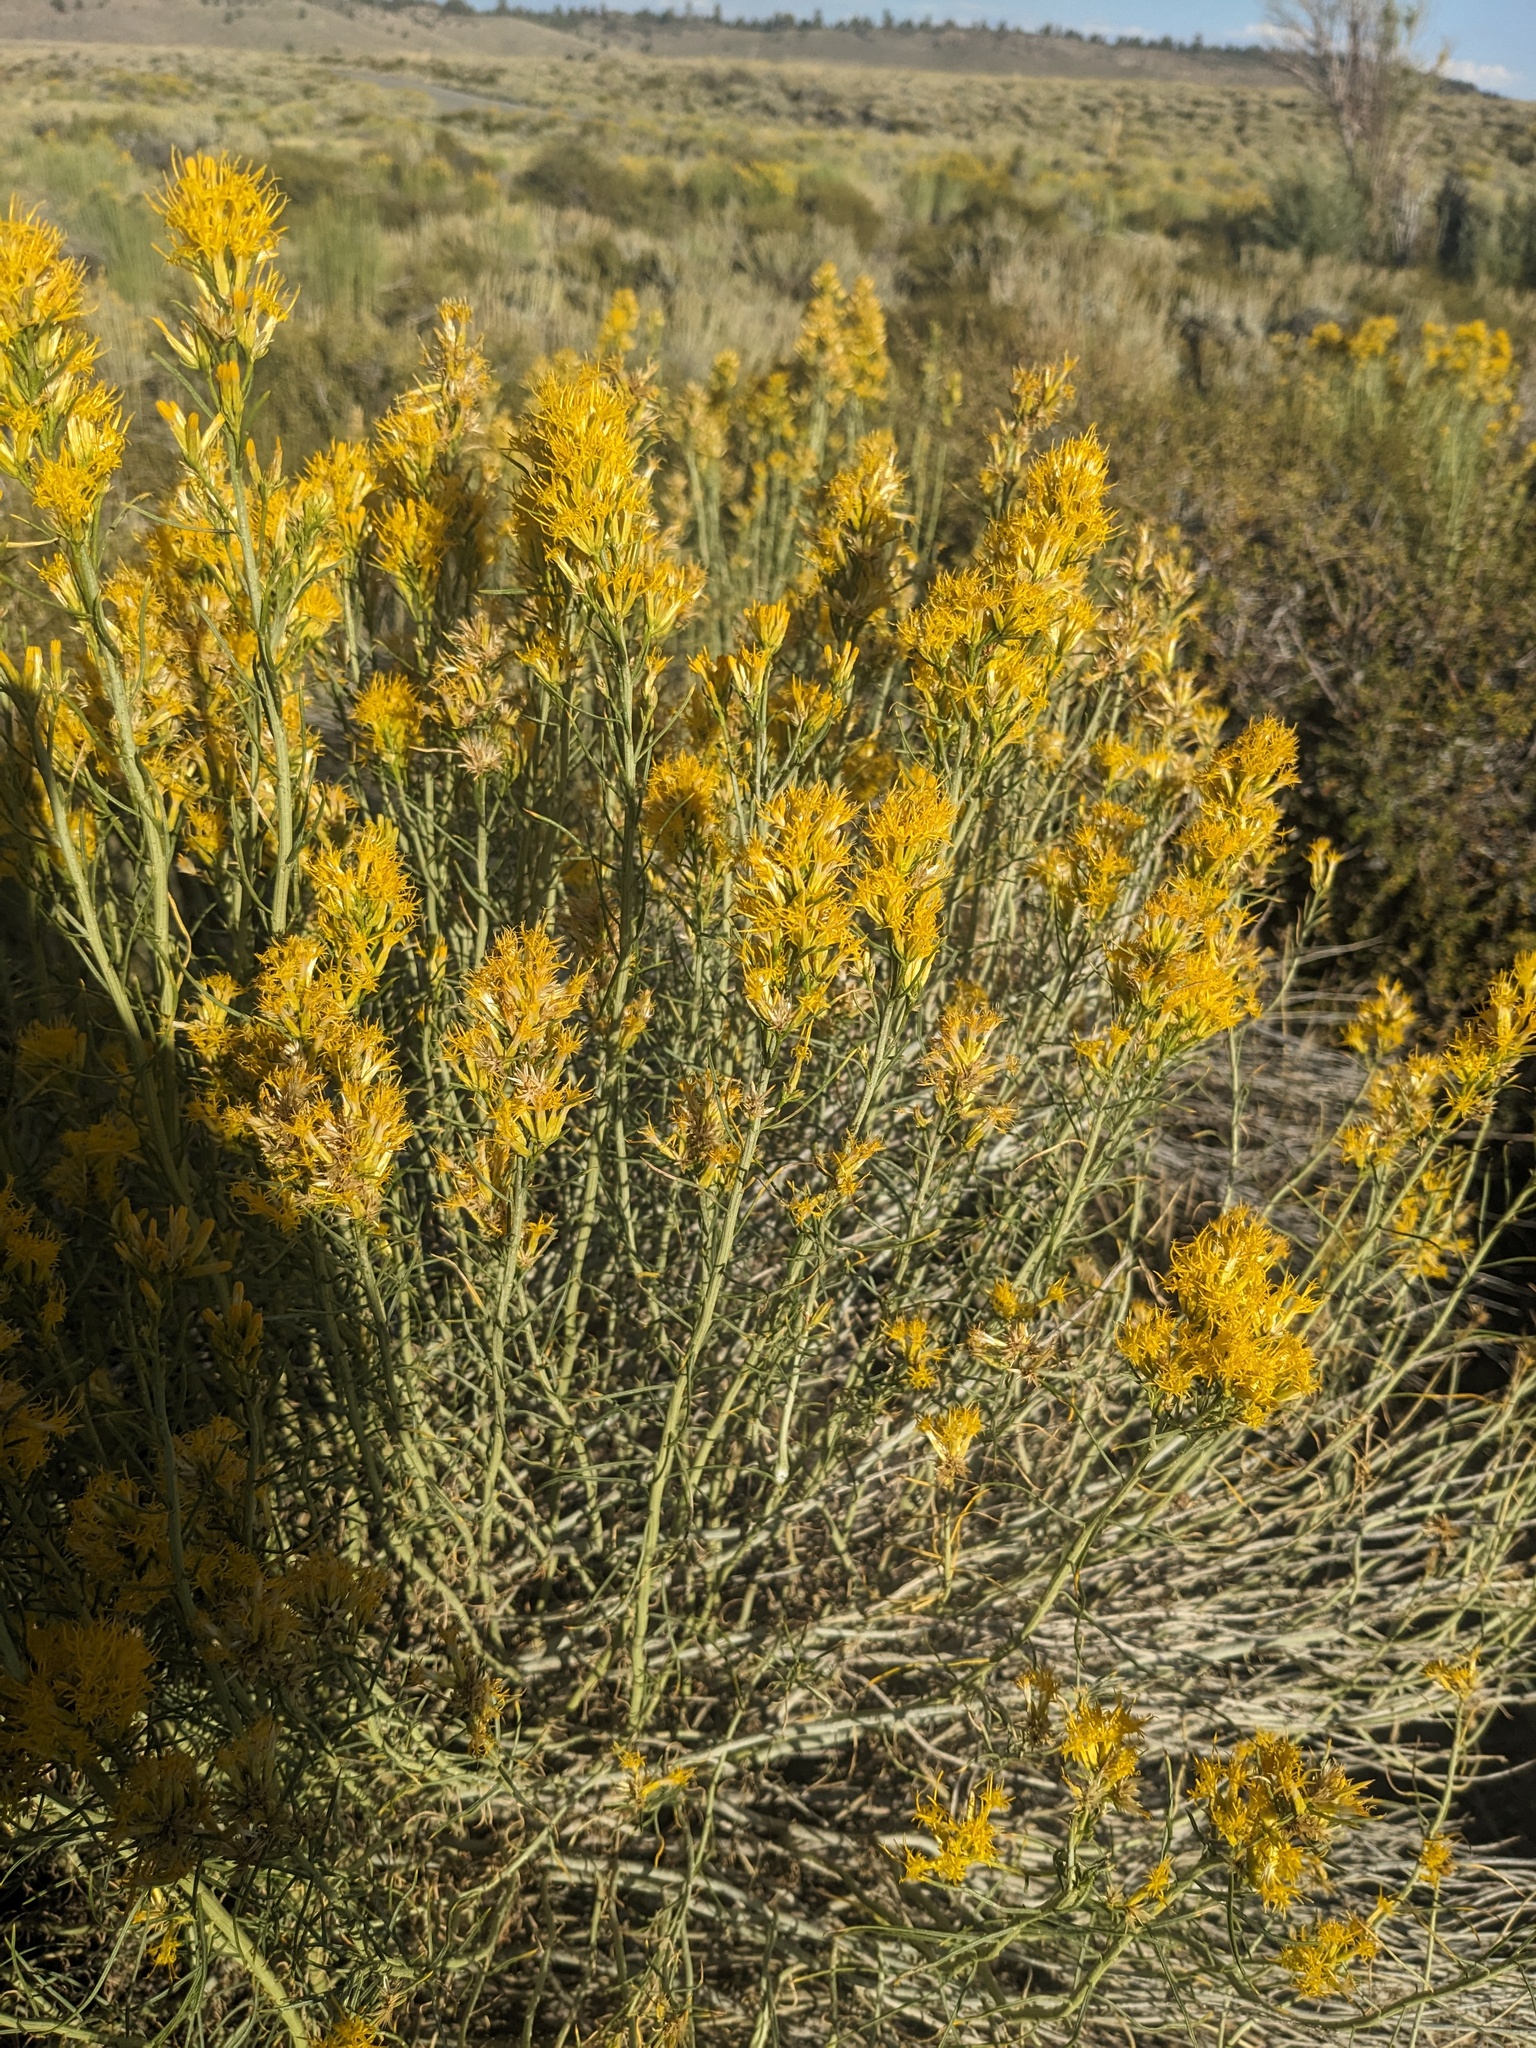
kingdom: Animalia
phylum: Arthropoda
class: Insecta
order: Diptera
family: Cecidomyiidae
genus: Rhopalomyia
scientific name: Rhopalomyia chrysothamni
